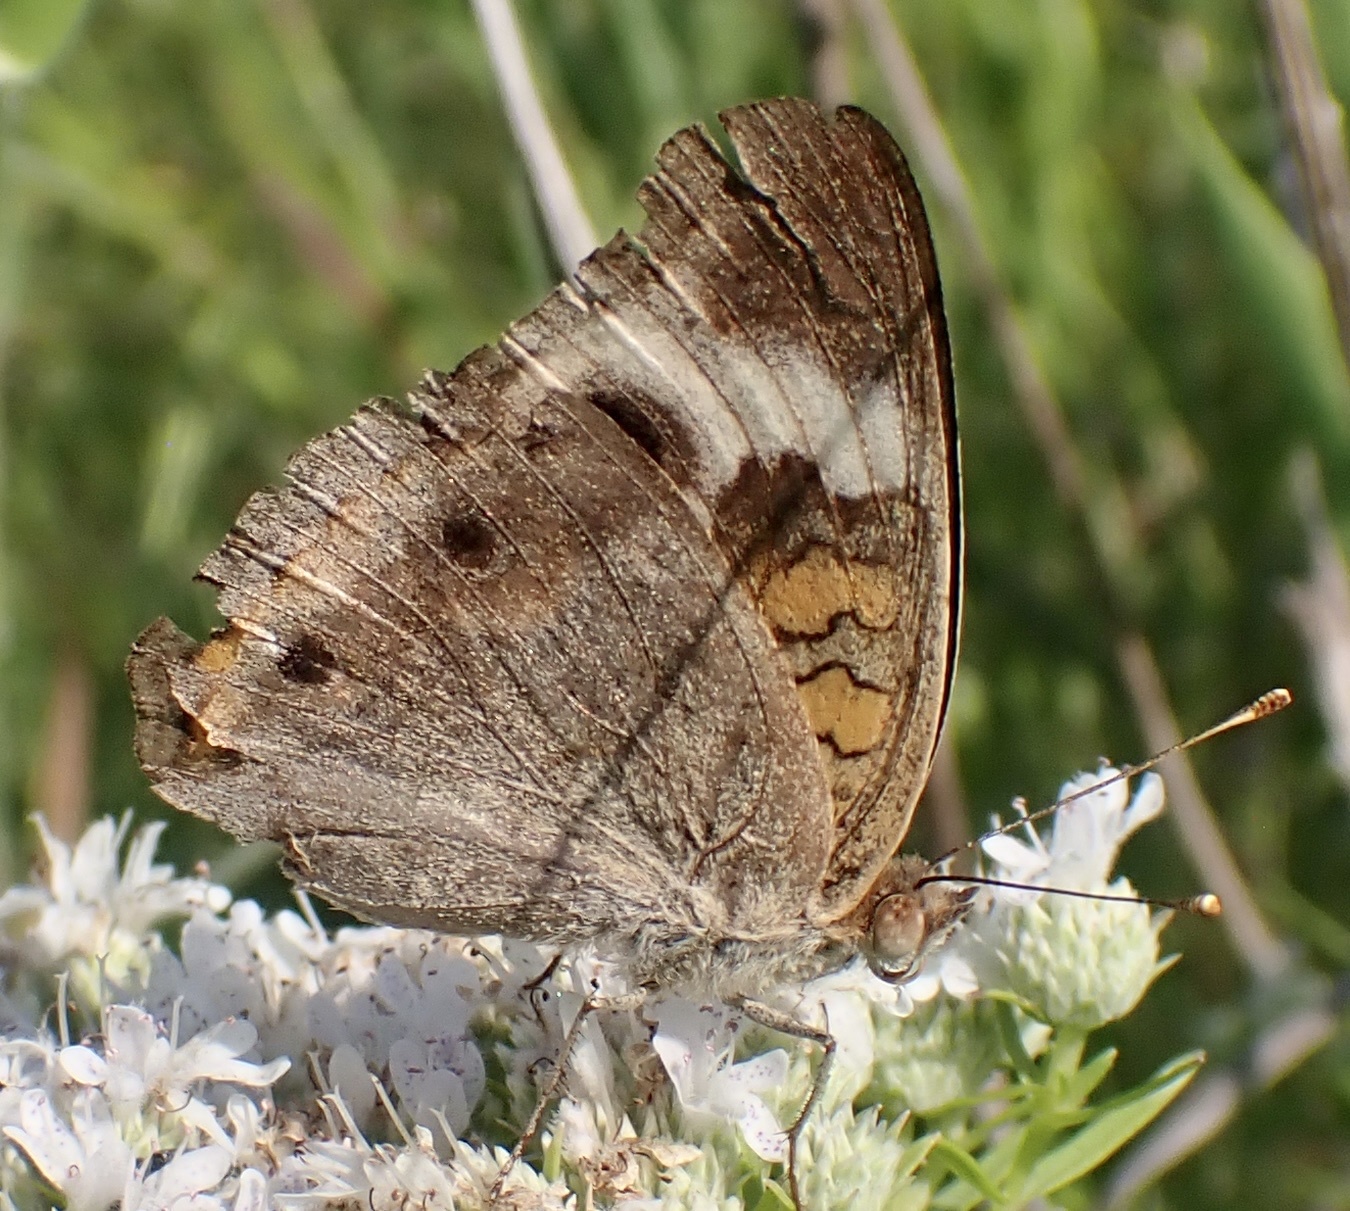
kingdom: Animalia
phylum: Arthropoda
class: Insecta
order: Lepidoptera
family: Nymphalidae
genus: Junonia
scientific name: Junonia coenia
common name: Common buckeye
